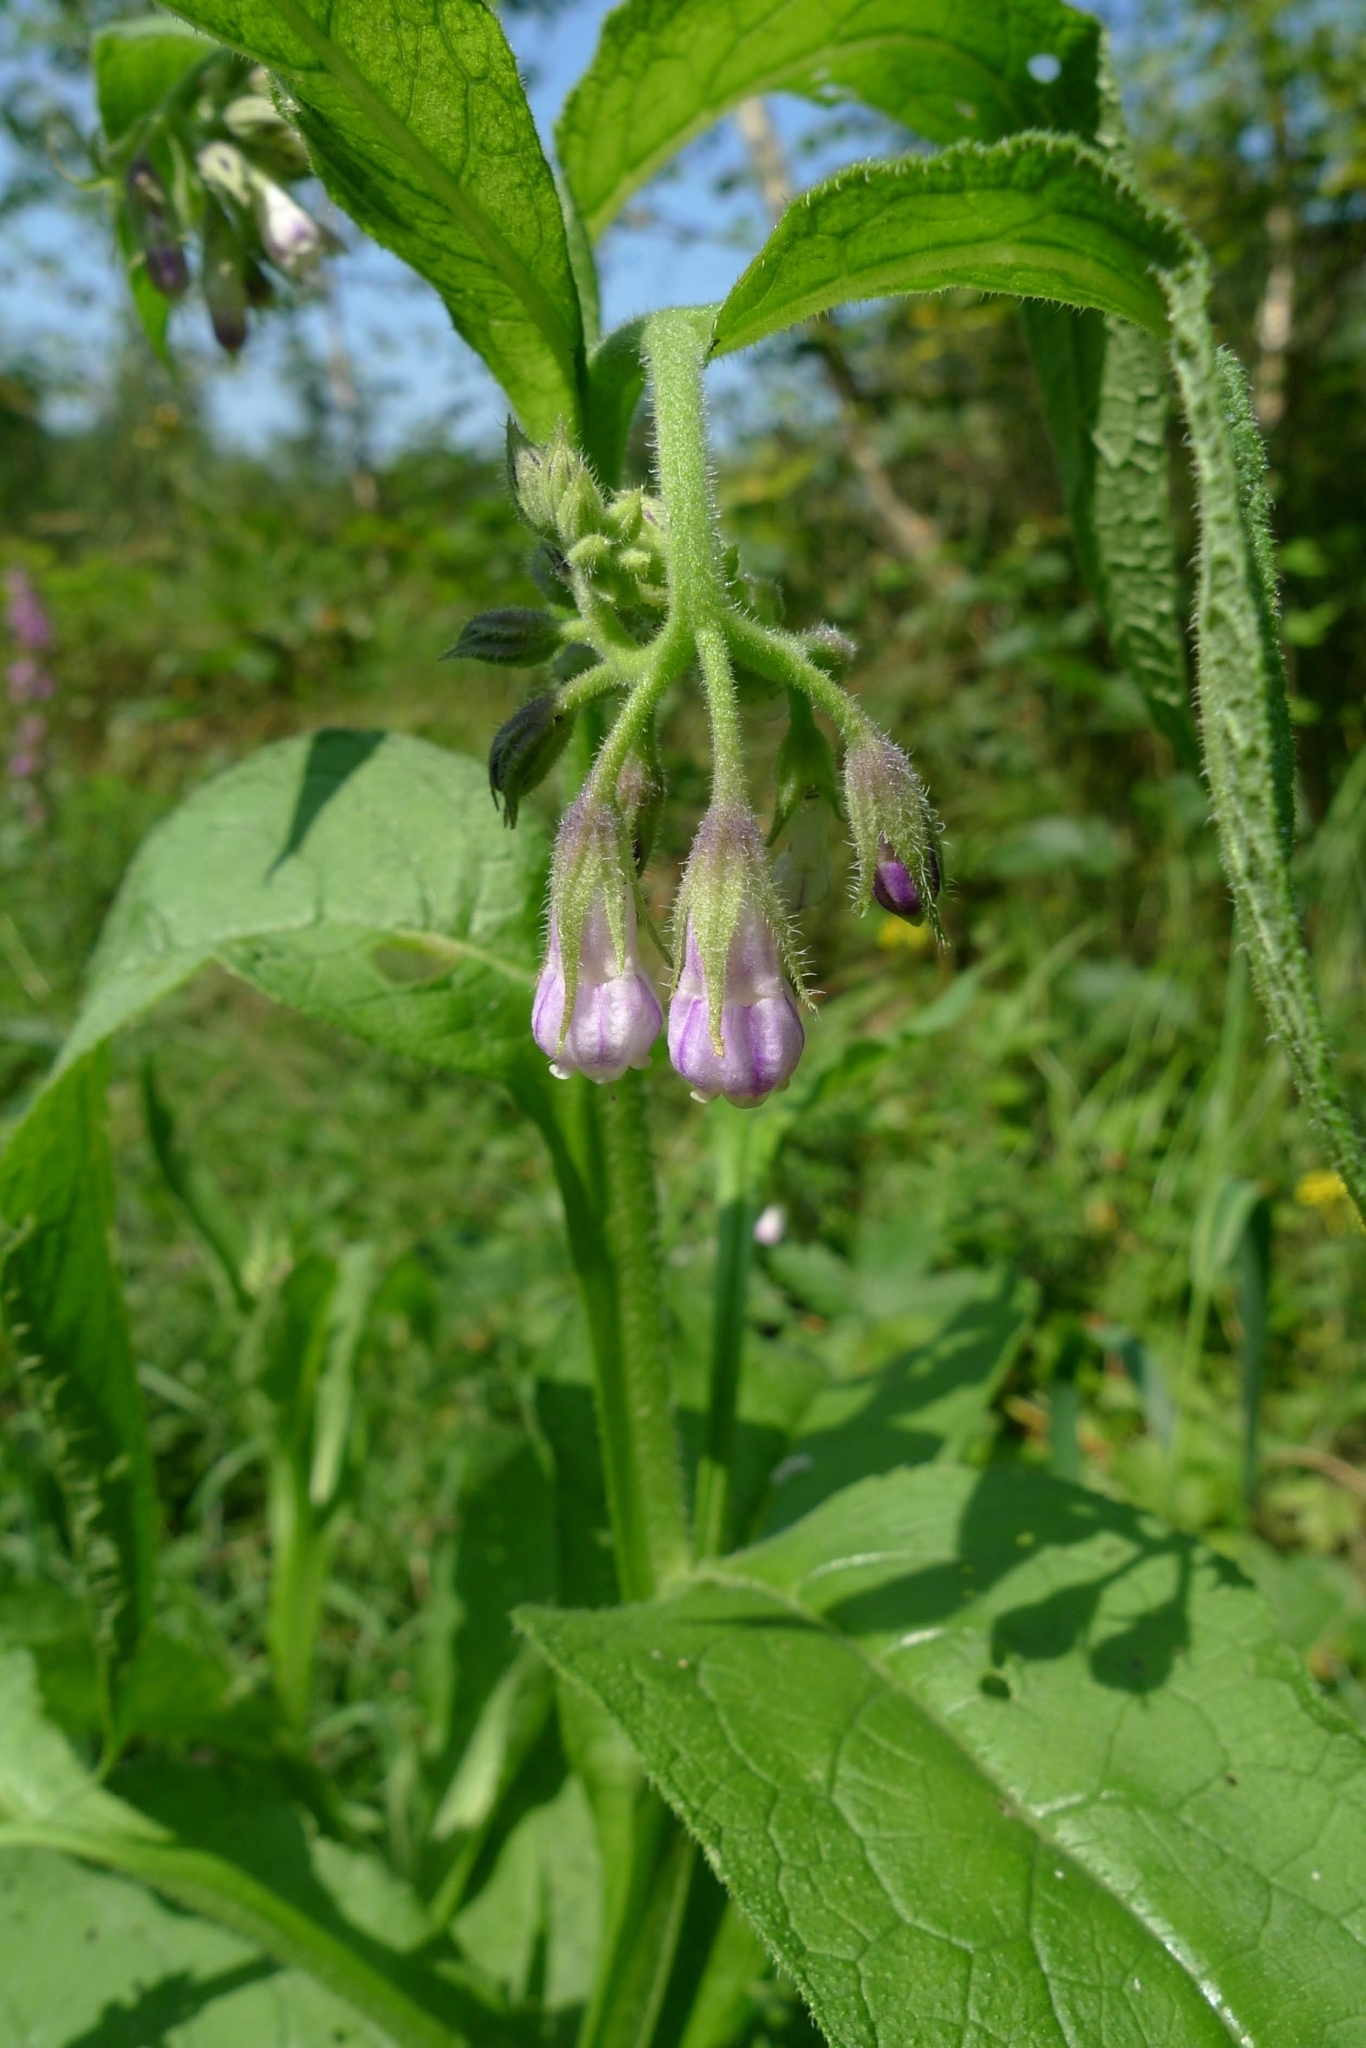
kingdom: Plantae
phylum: Tracheophyta
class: Magnoliopsida
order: Boraginales
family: Boraginaceae
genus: Symphytum
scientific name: Symphytum officinale
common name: Common comfrey
